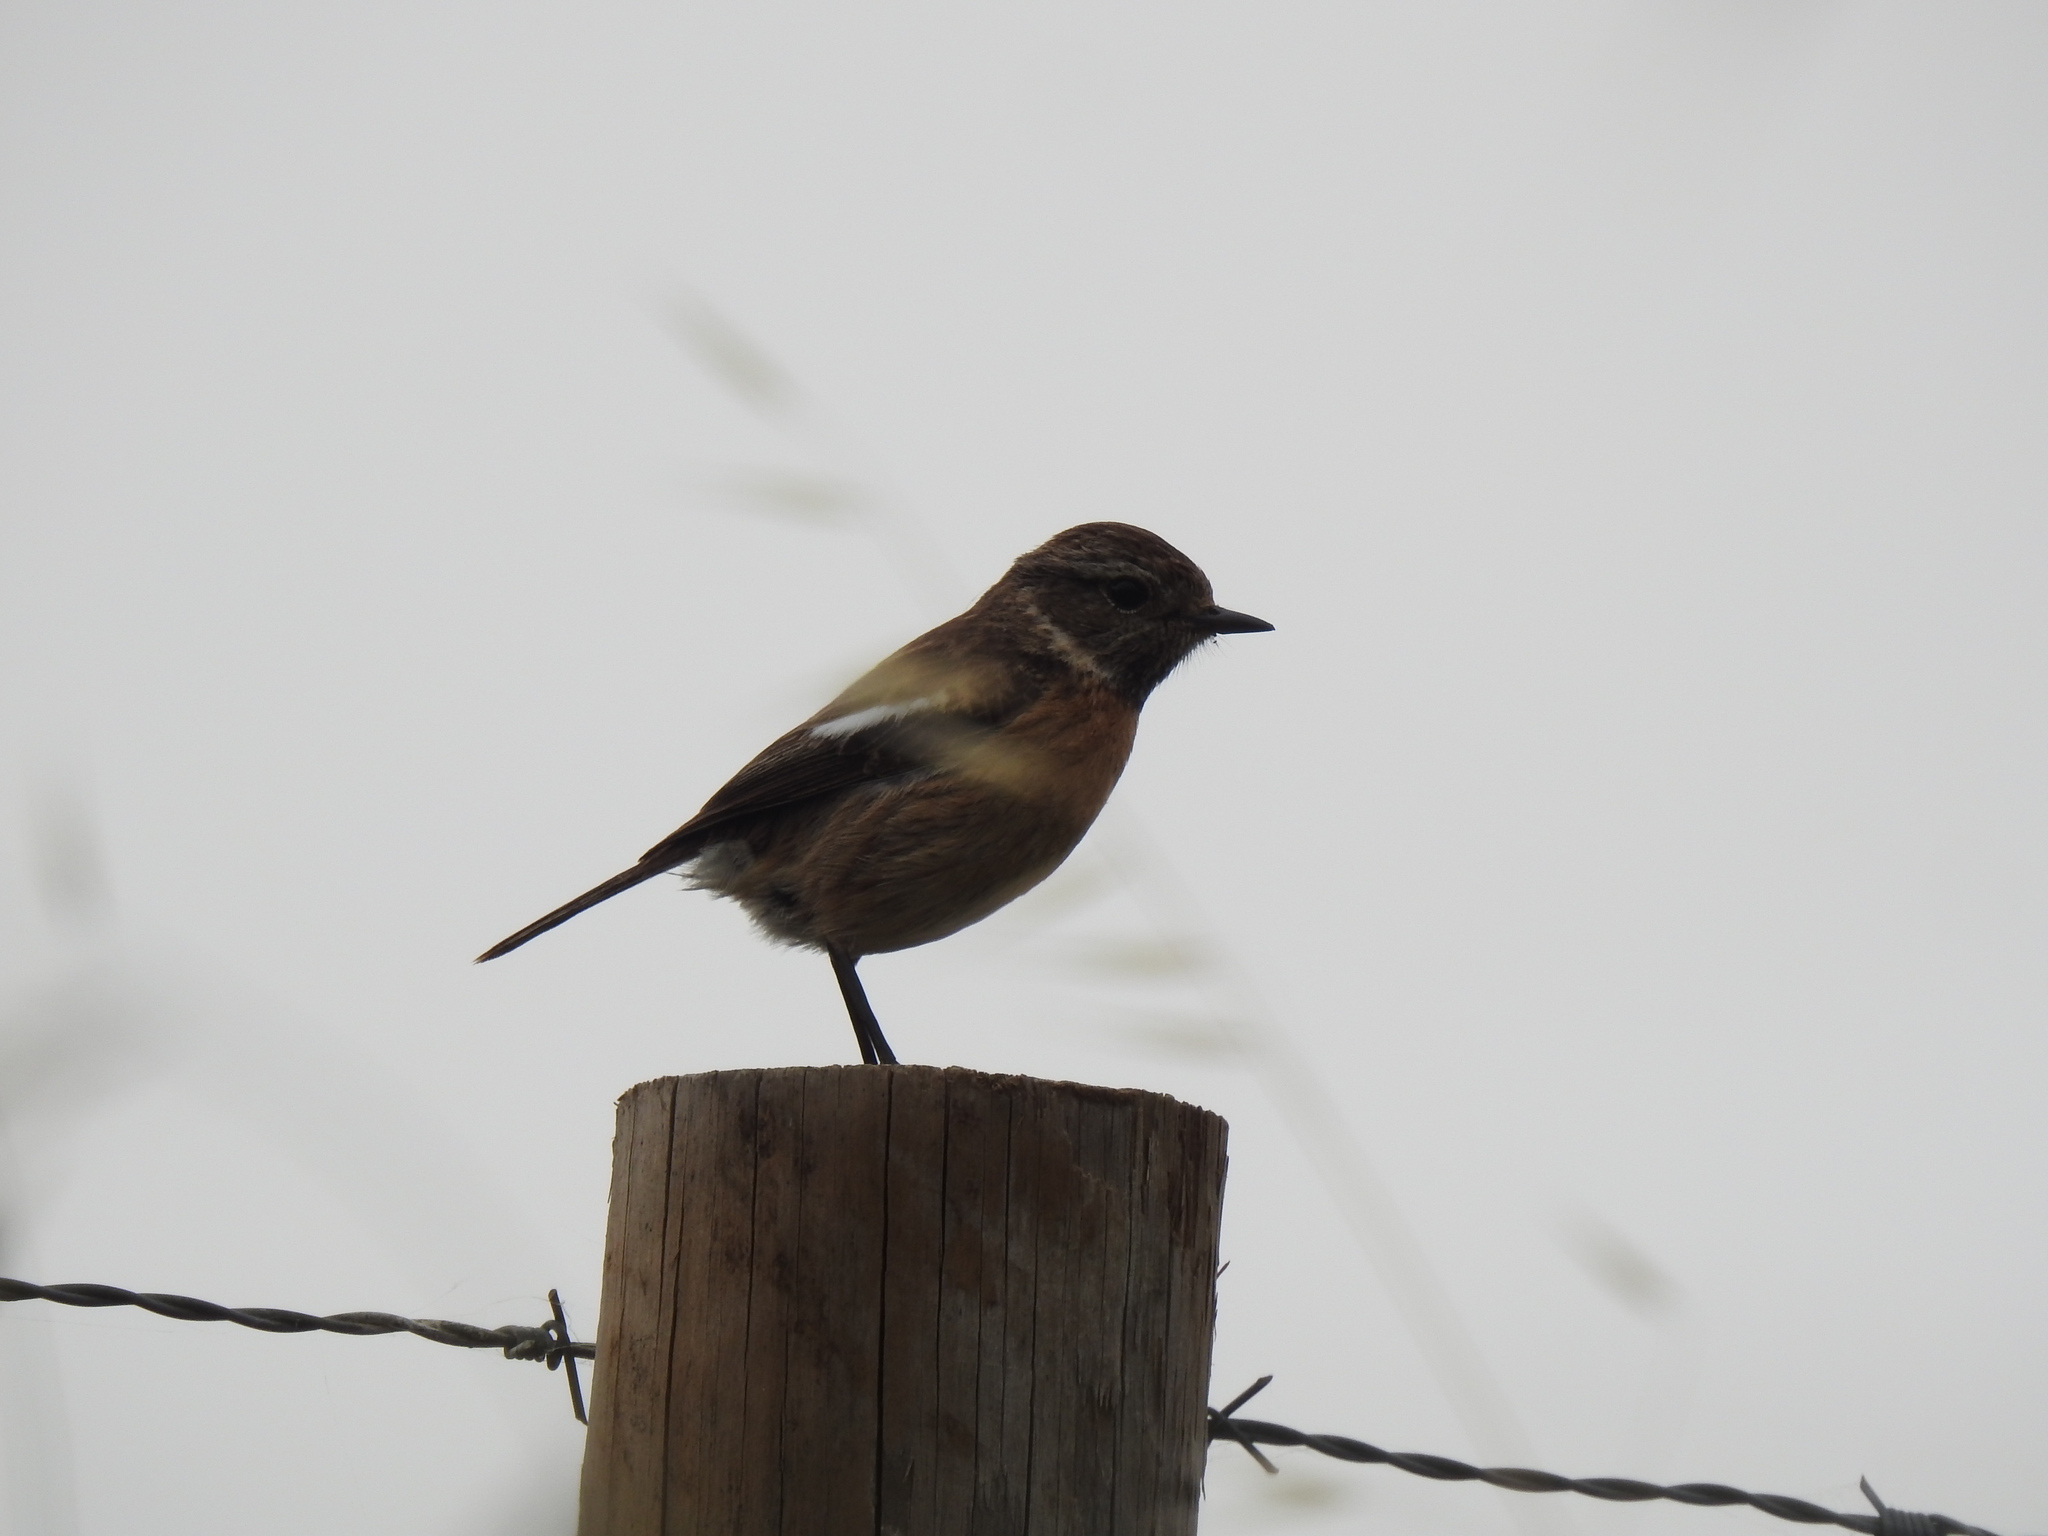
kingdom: Animalia
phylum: Chordata
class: Aves
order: Passeriformes
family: Muscicapidae
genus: Saxicola
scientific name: Saxicola rubicola
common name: European stonechat
